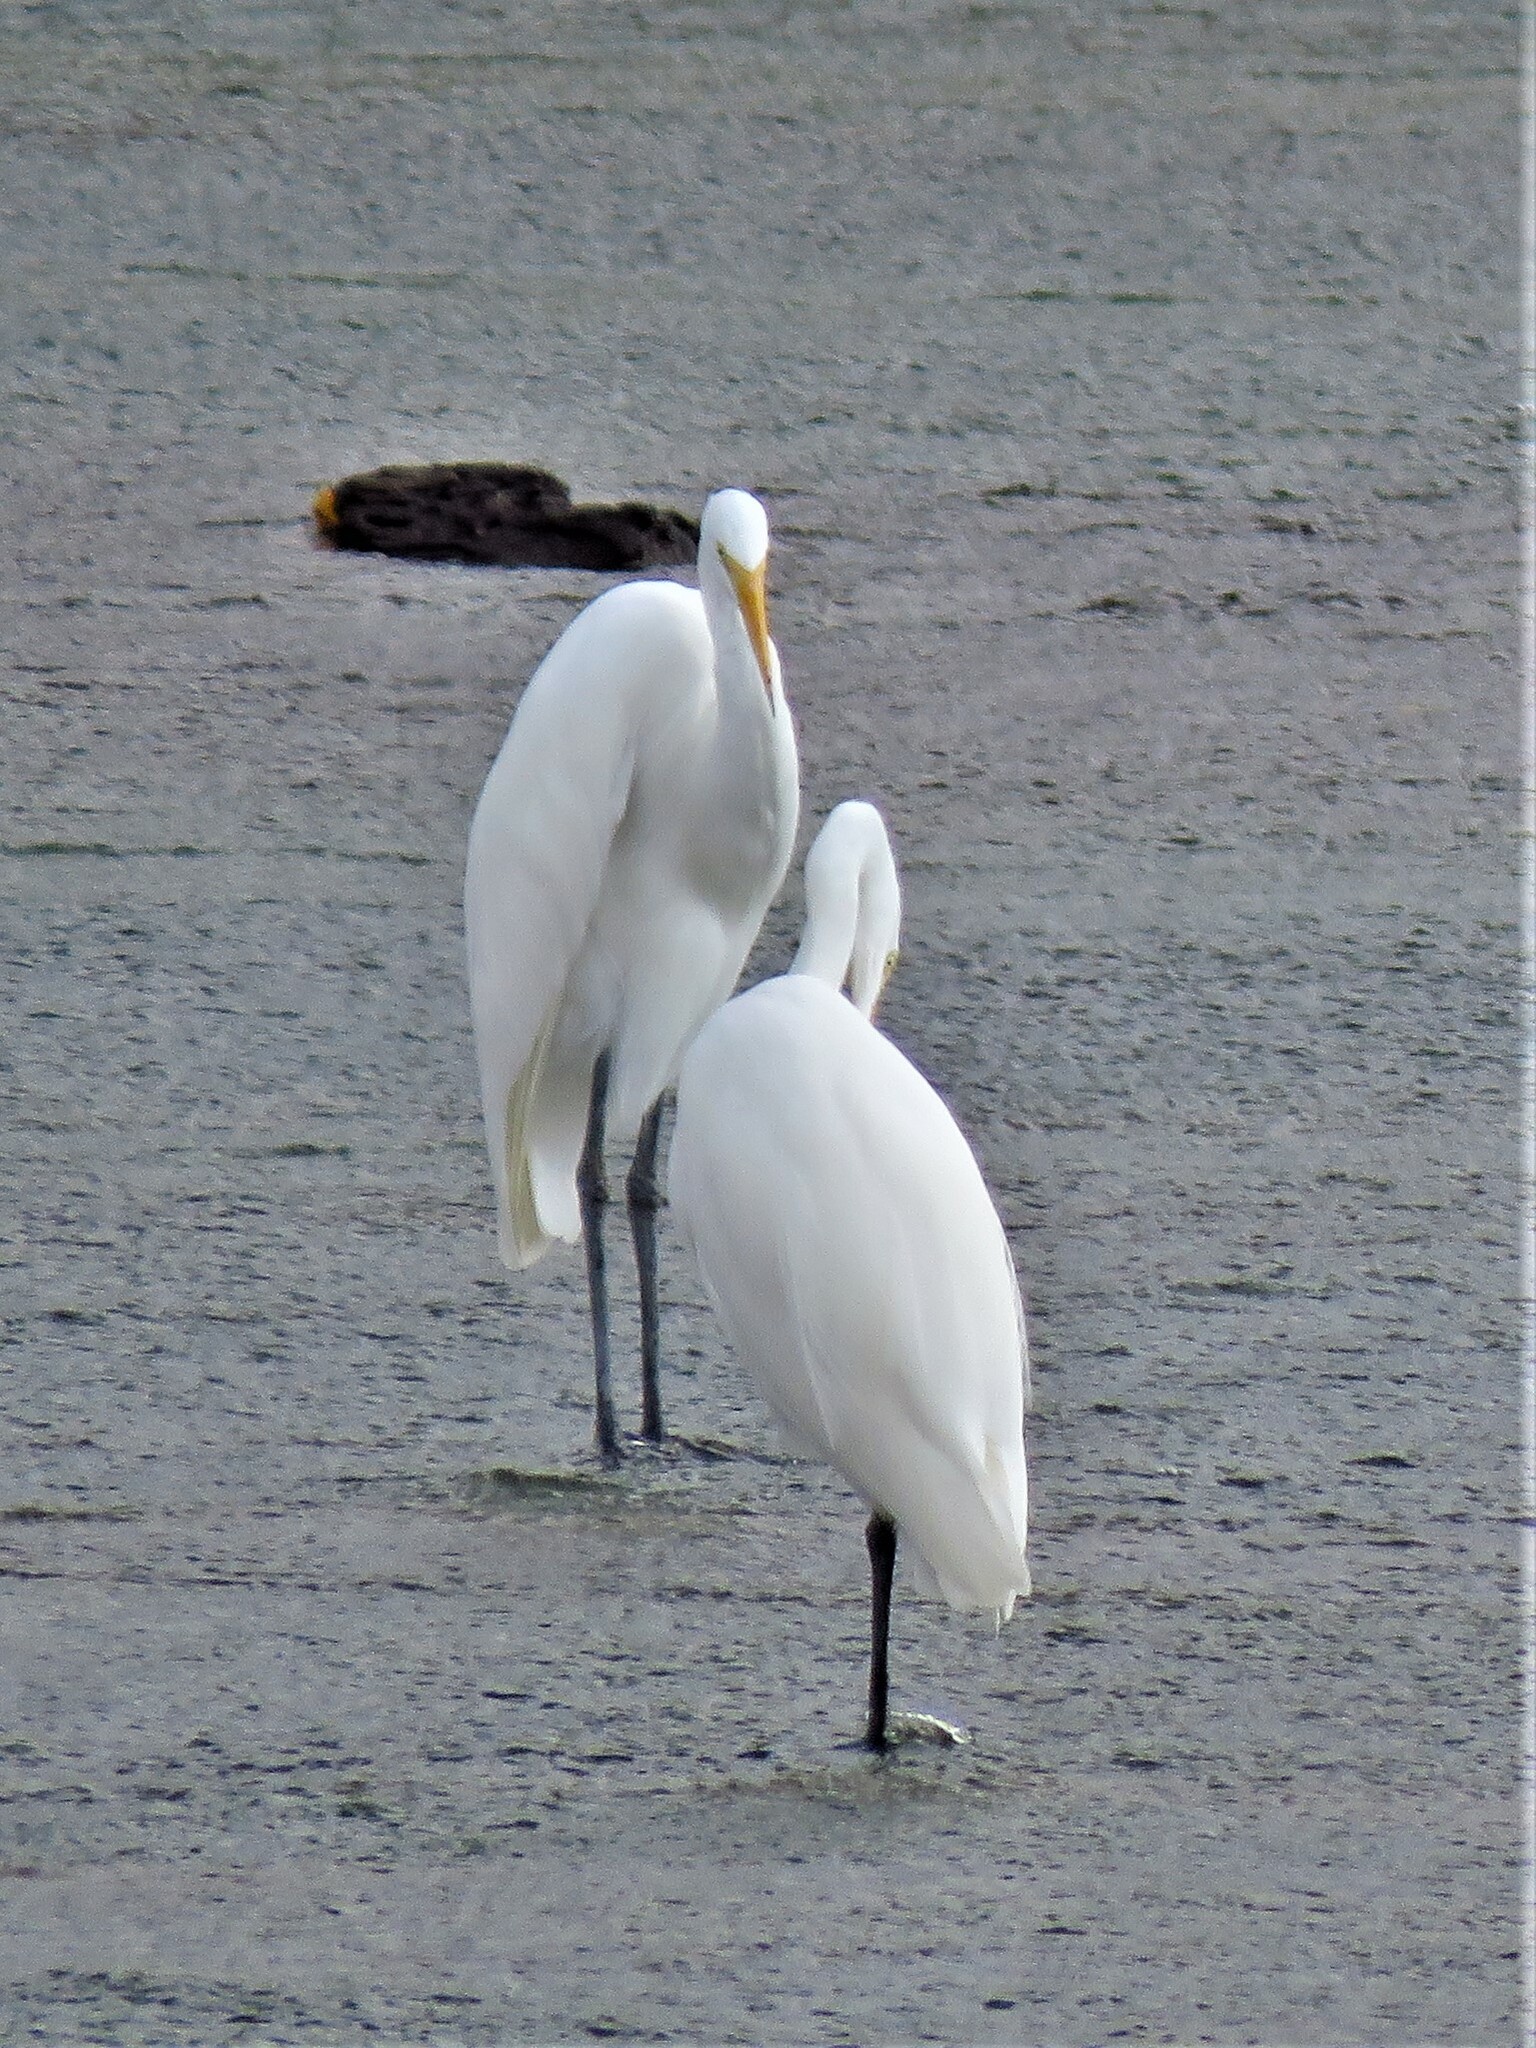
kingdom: Animalia
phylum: Chordata
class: Aves
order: Pelecaniformes
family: Ardeidae
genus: Ardea
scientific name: Ardea alba
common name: Great egret
